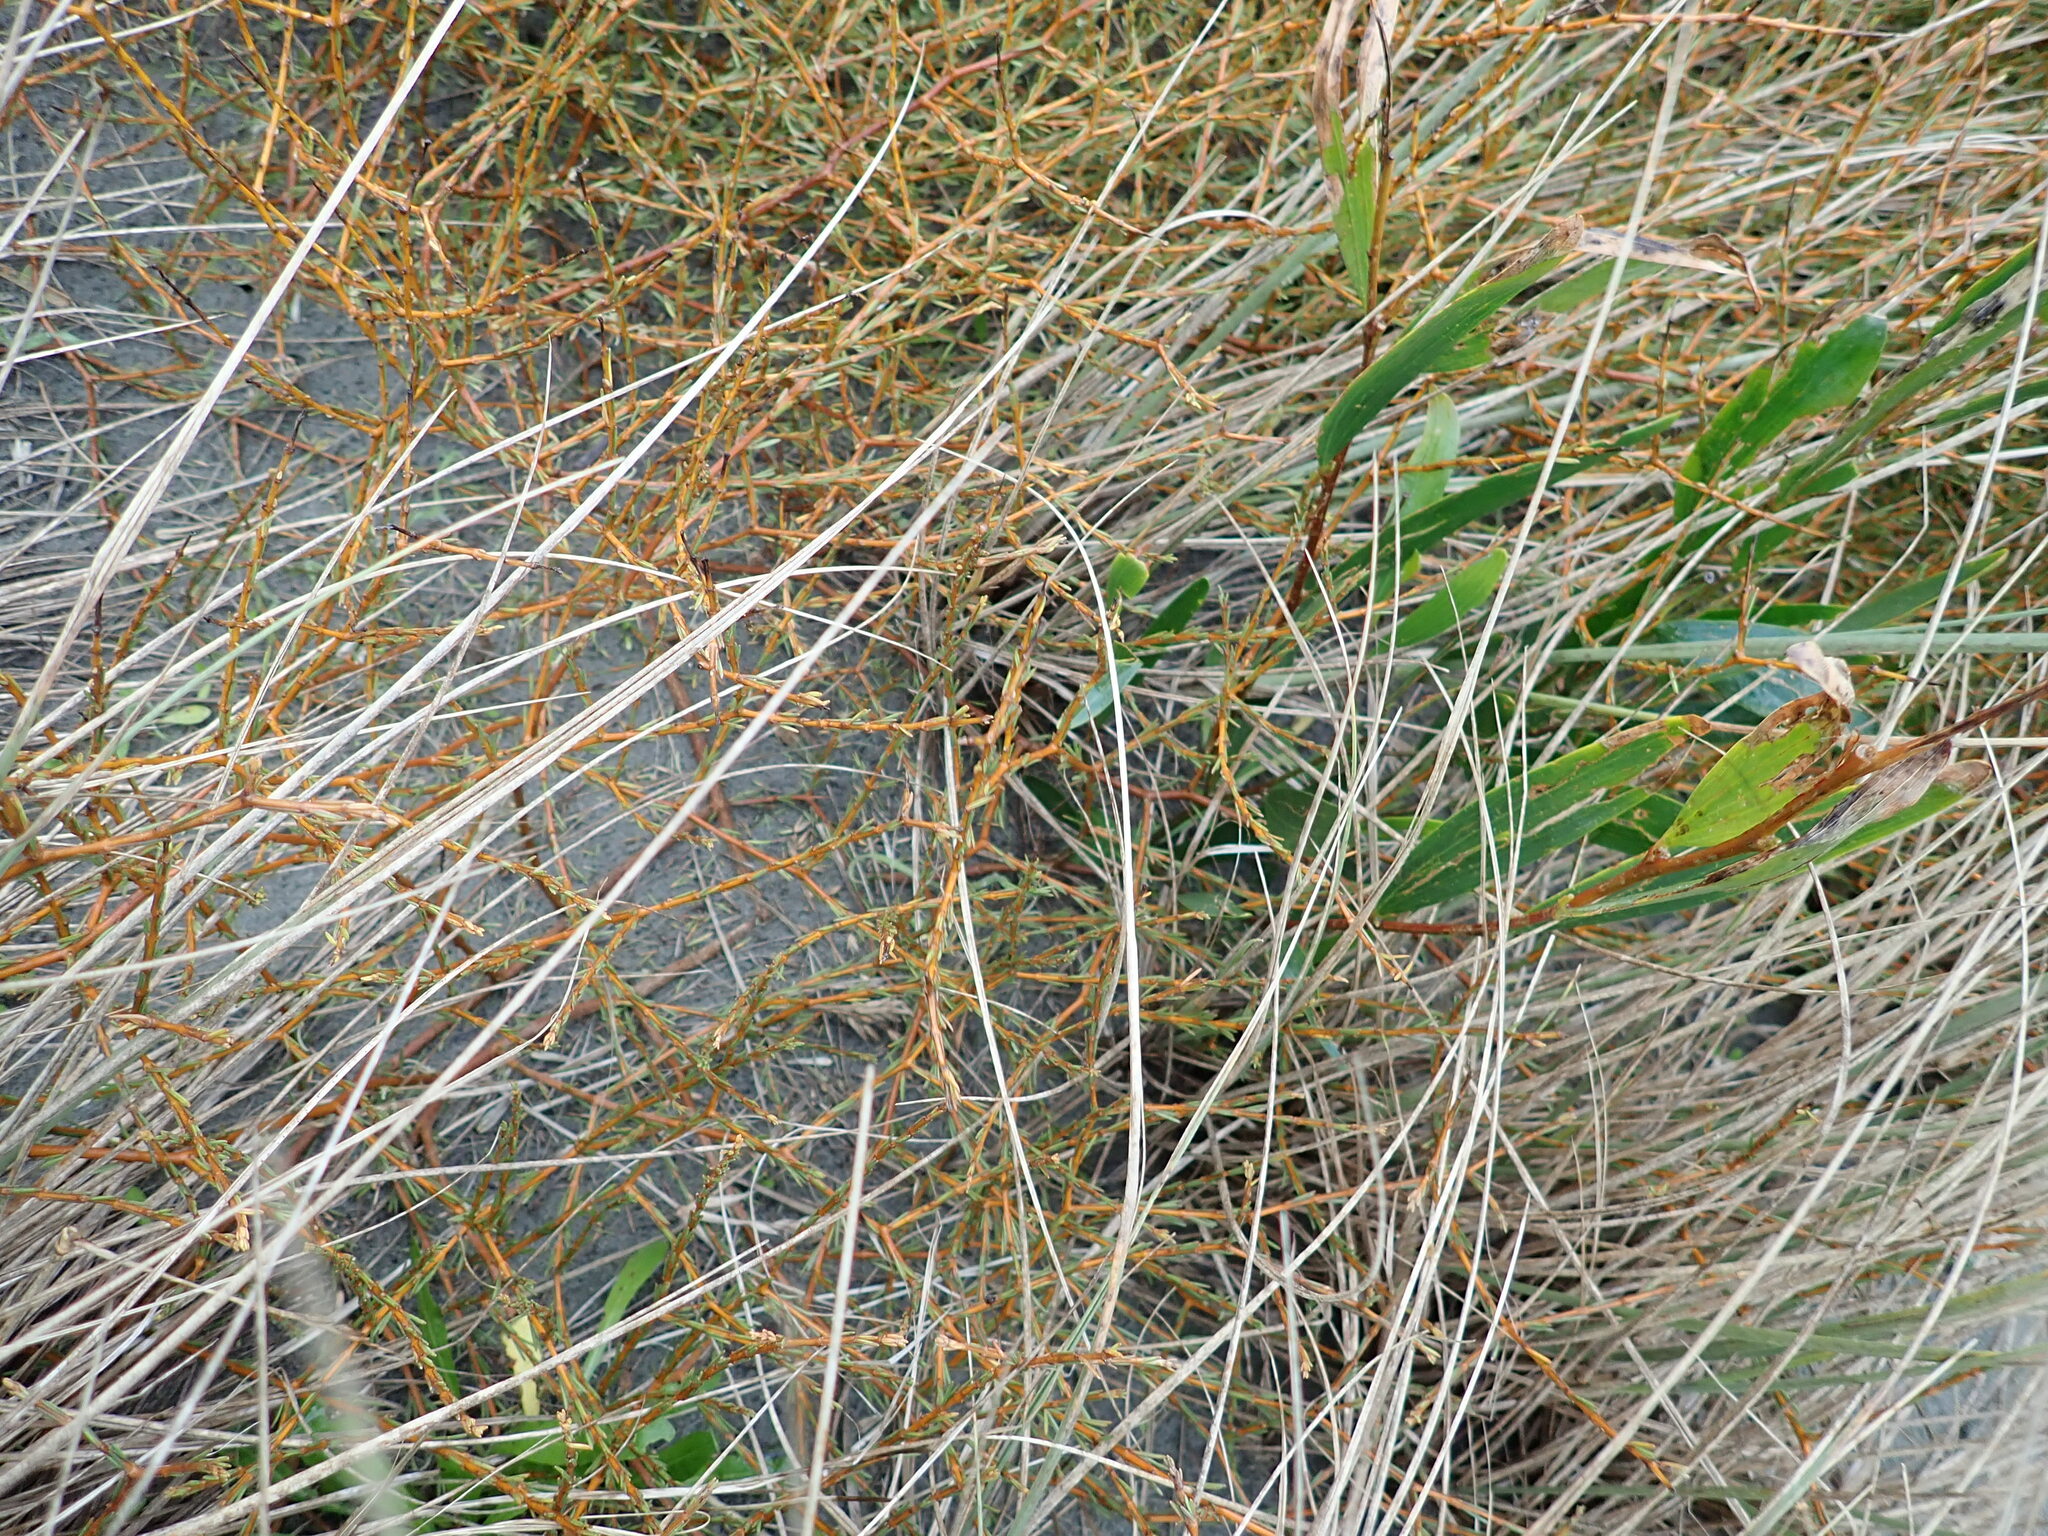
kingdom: Plantae
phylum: Tracheophyta
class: Magnoliopsida
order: Gentianales
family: Rubiaceae
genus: Coprosma
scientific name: Coprosma acerosa
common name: Sand coprosma
